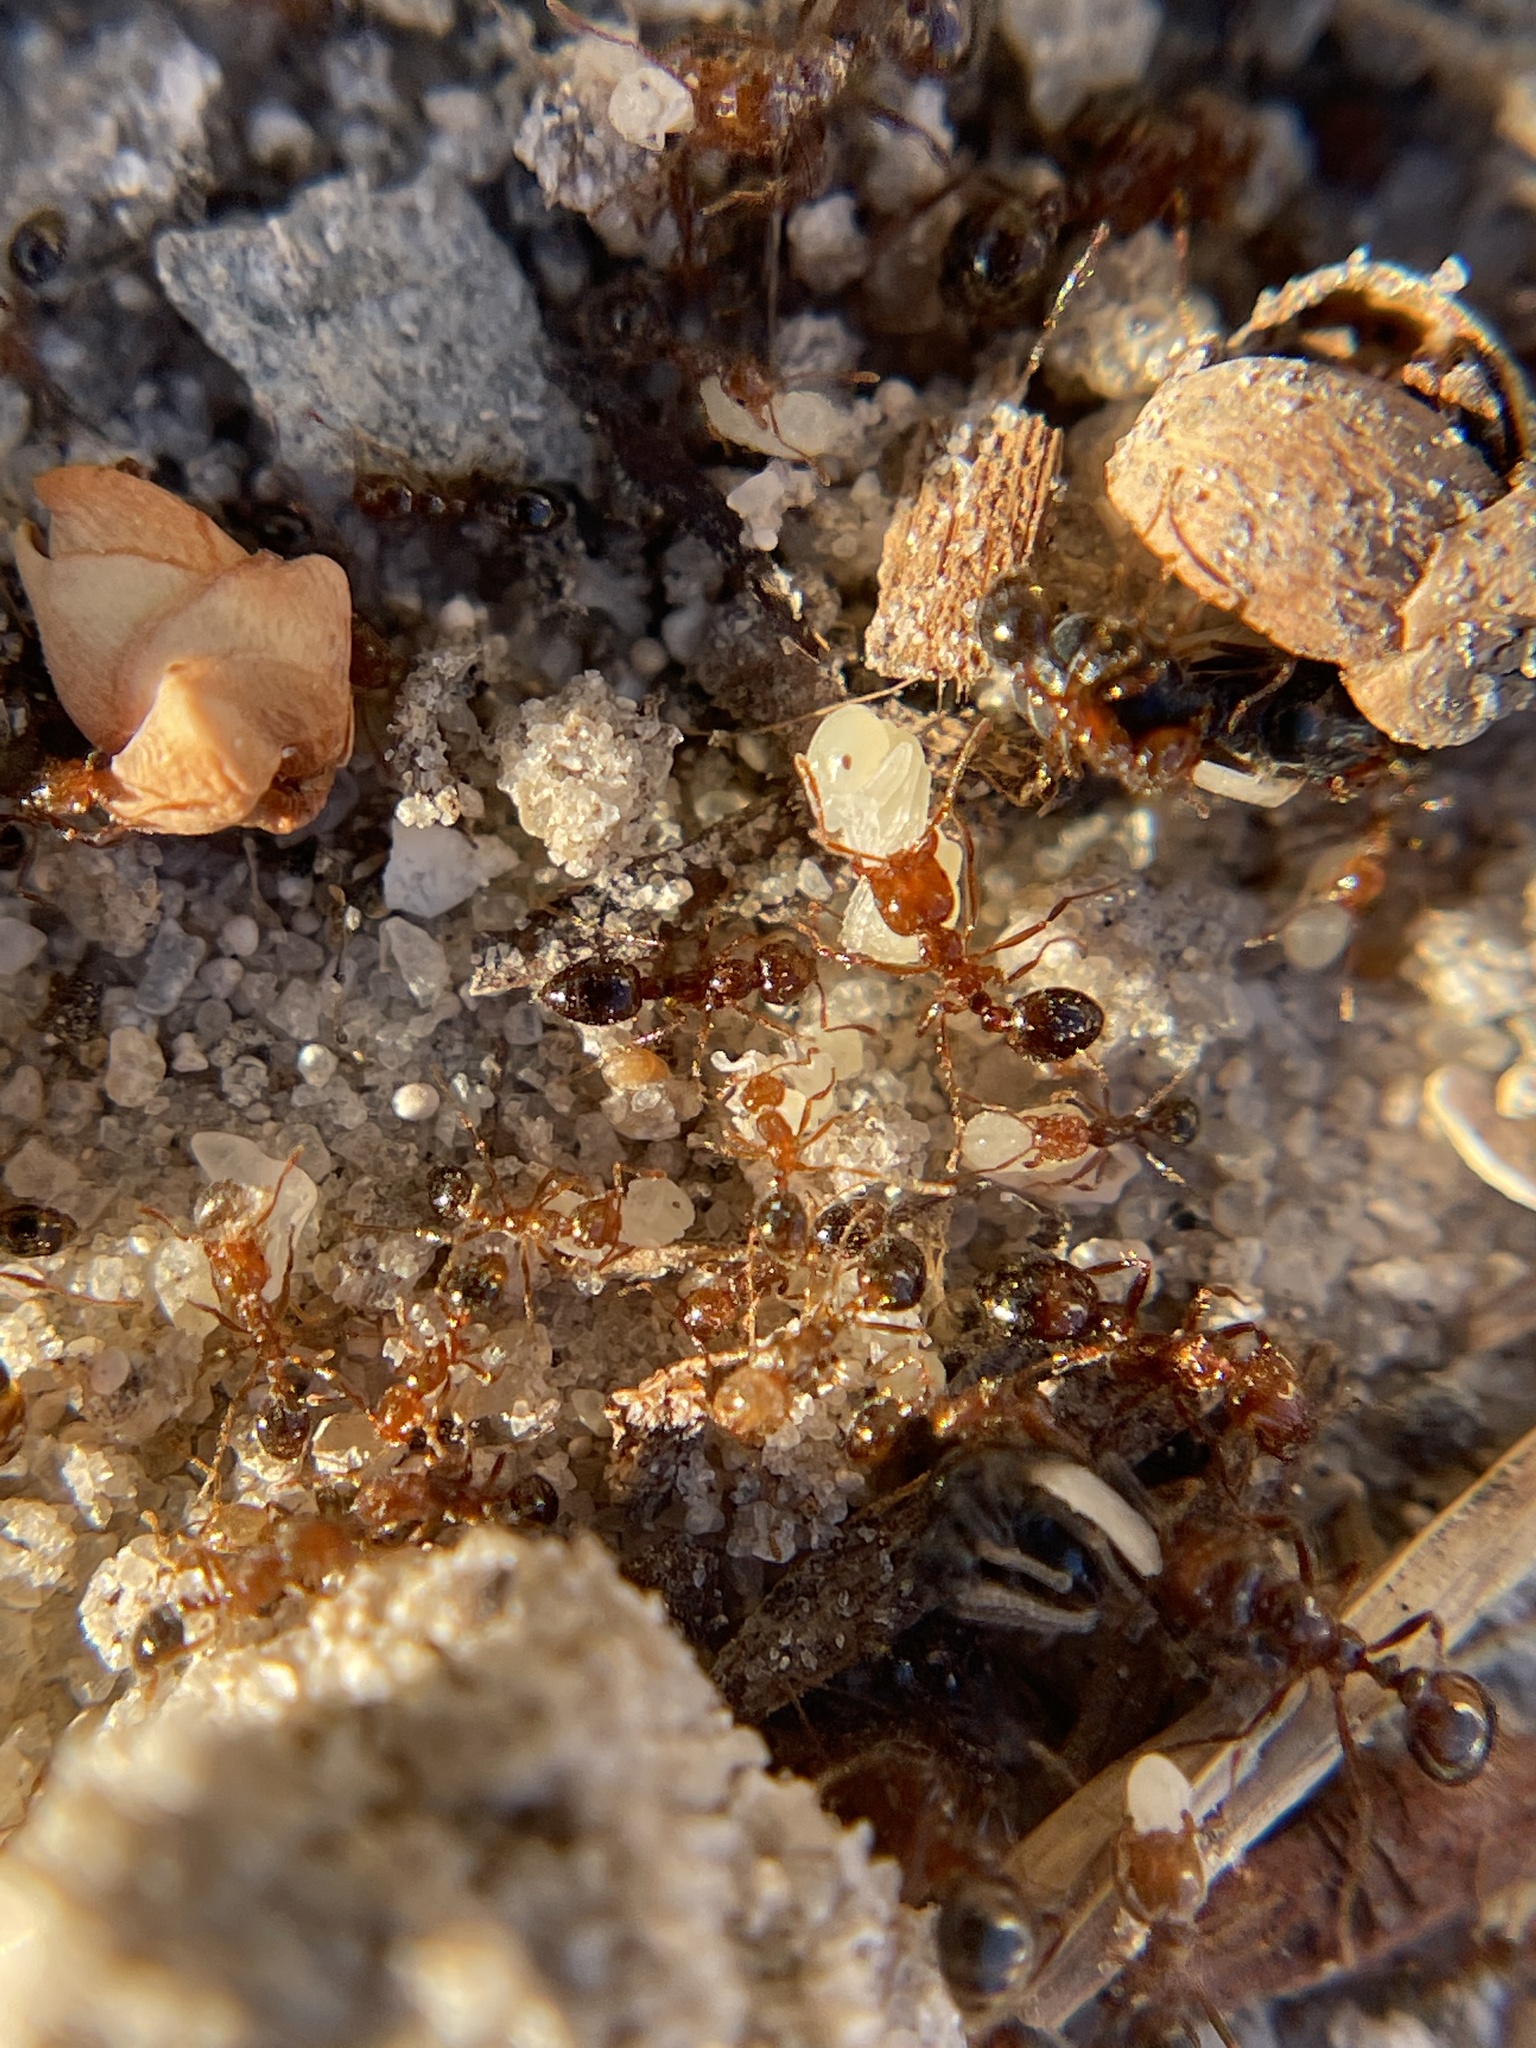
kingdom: Animalia
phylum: Arthropoda
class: Insecta
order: Hymenoptera
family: Formicidae
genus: Solenopsis
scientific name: Solenopsis invicta
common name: Red imported fire ant
